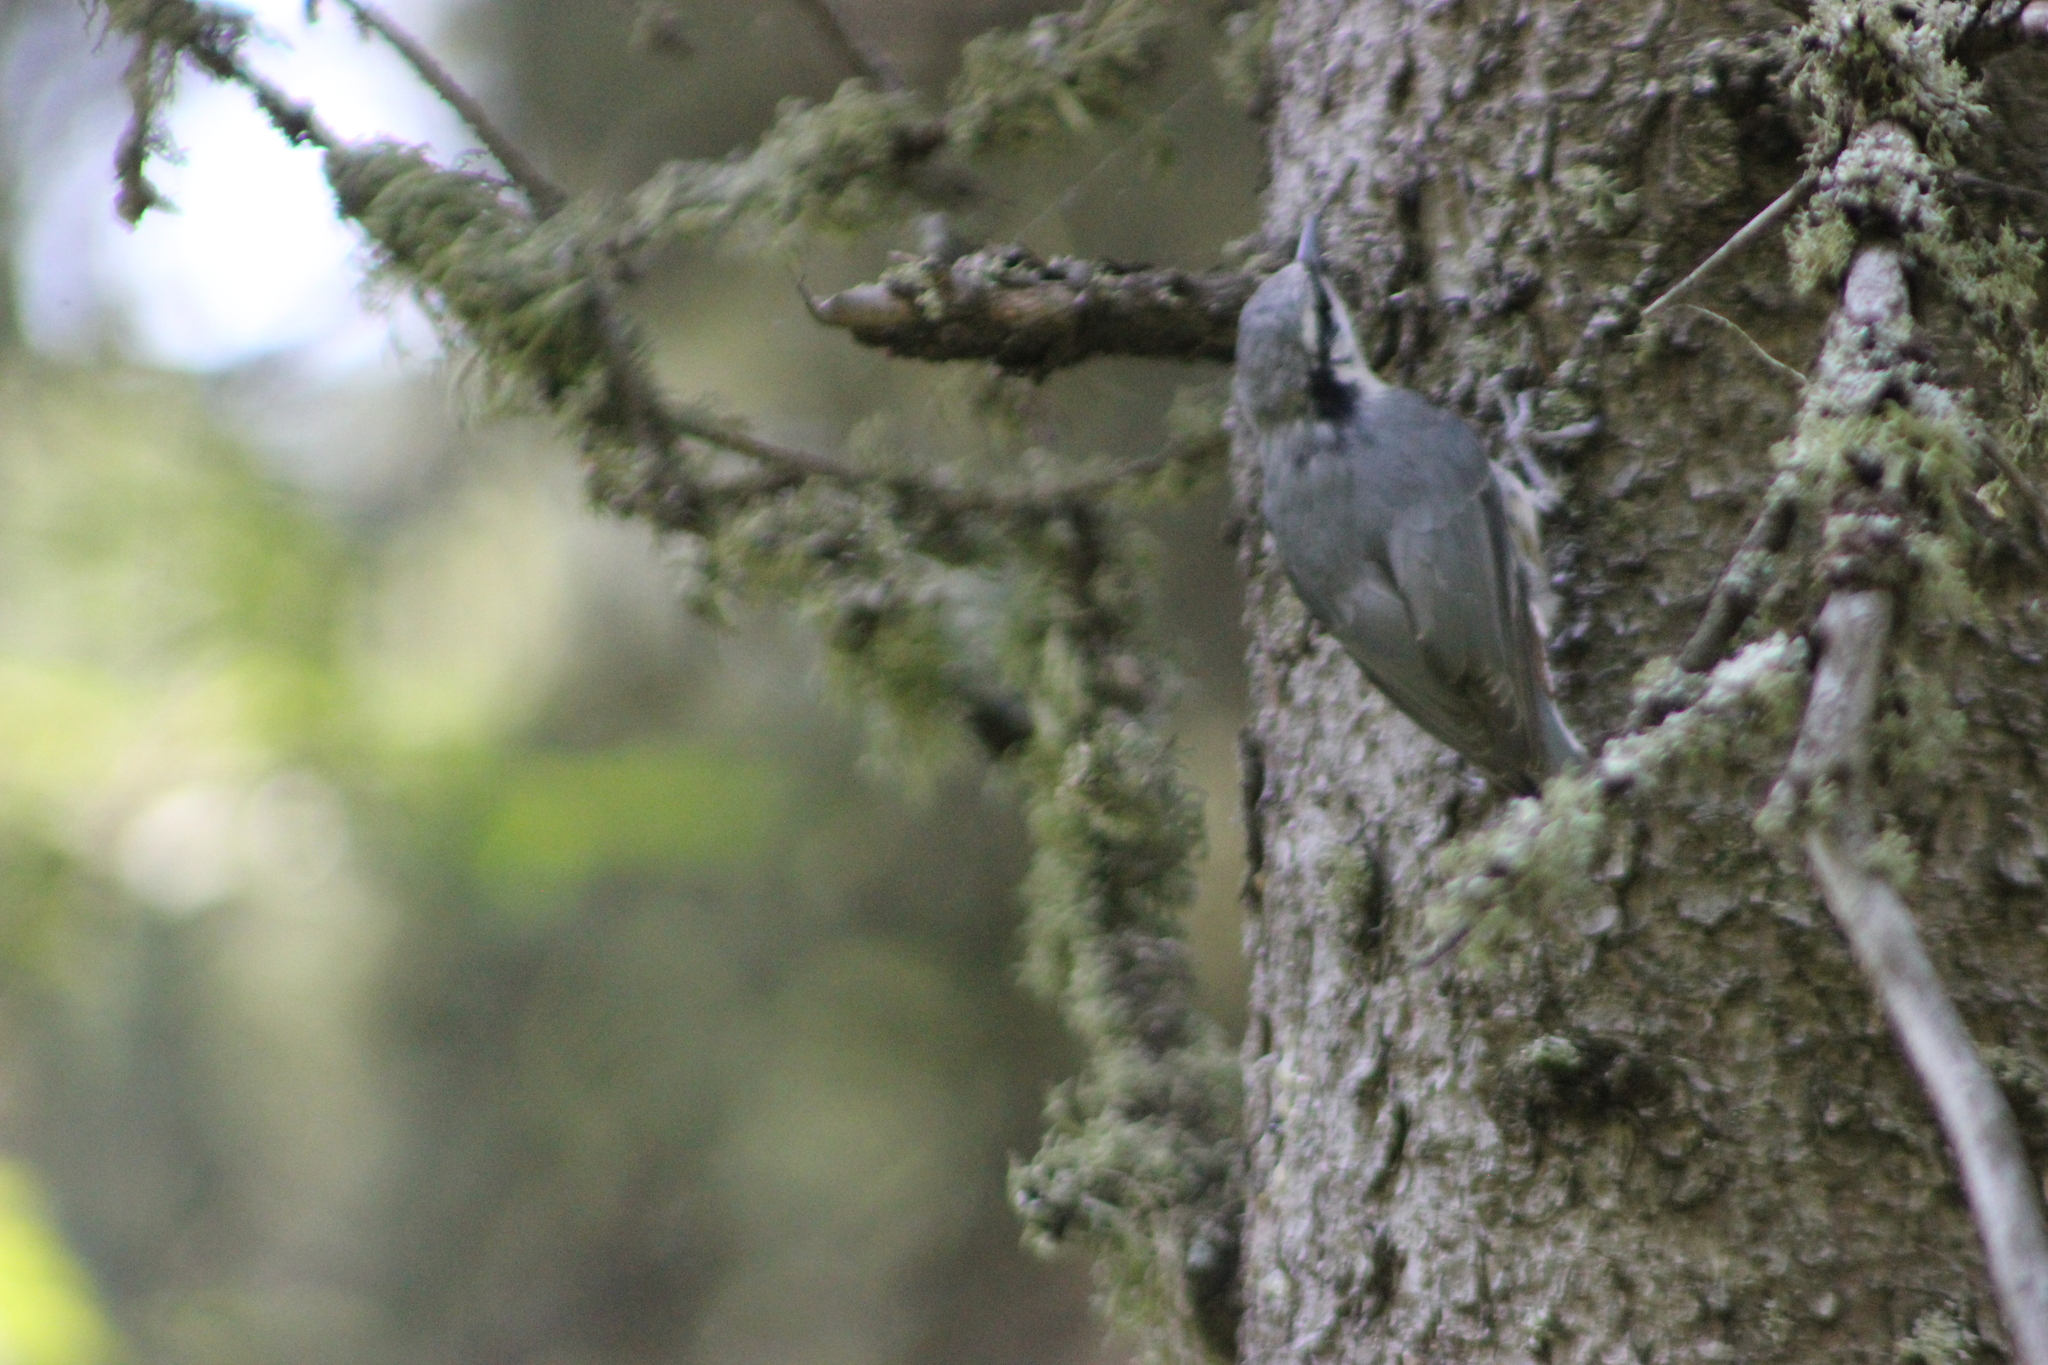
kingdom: Animalia
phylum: Chordata
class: Aves
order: Passeriformes
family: Sittidae
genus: Sitta
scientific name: Sitta europaea
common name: Eurasian nuthatch
